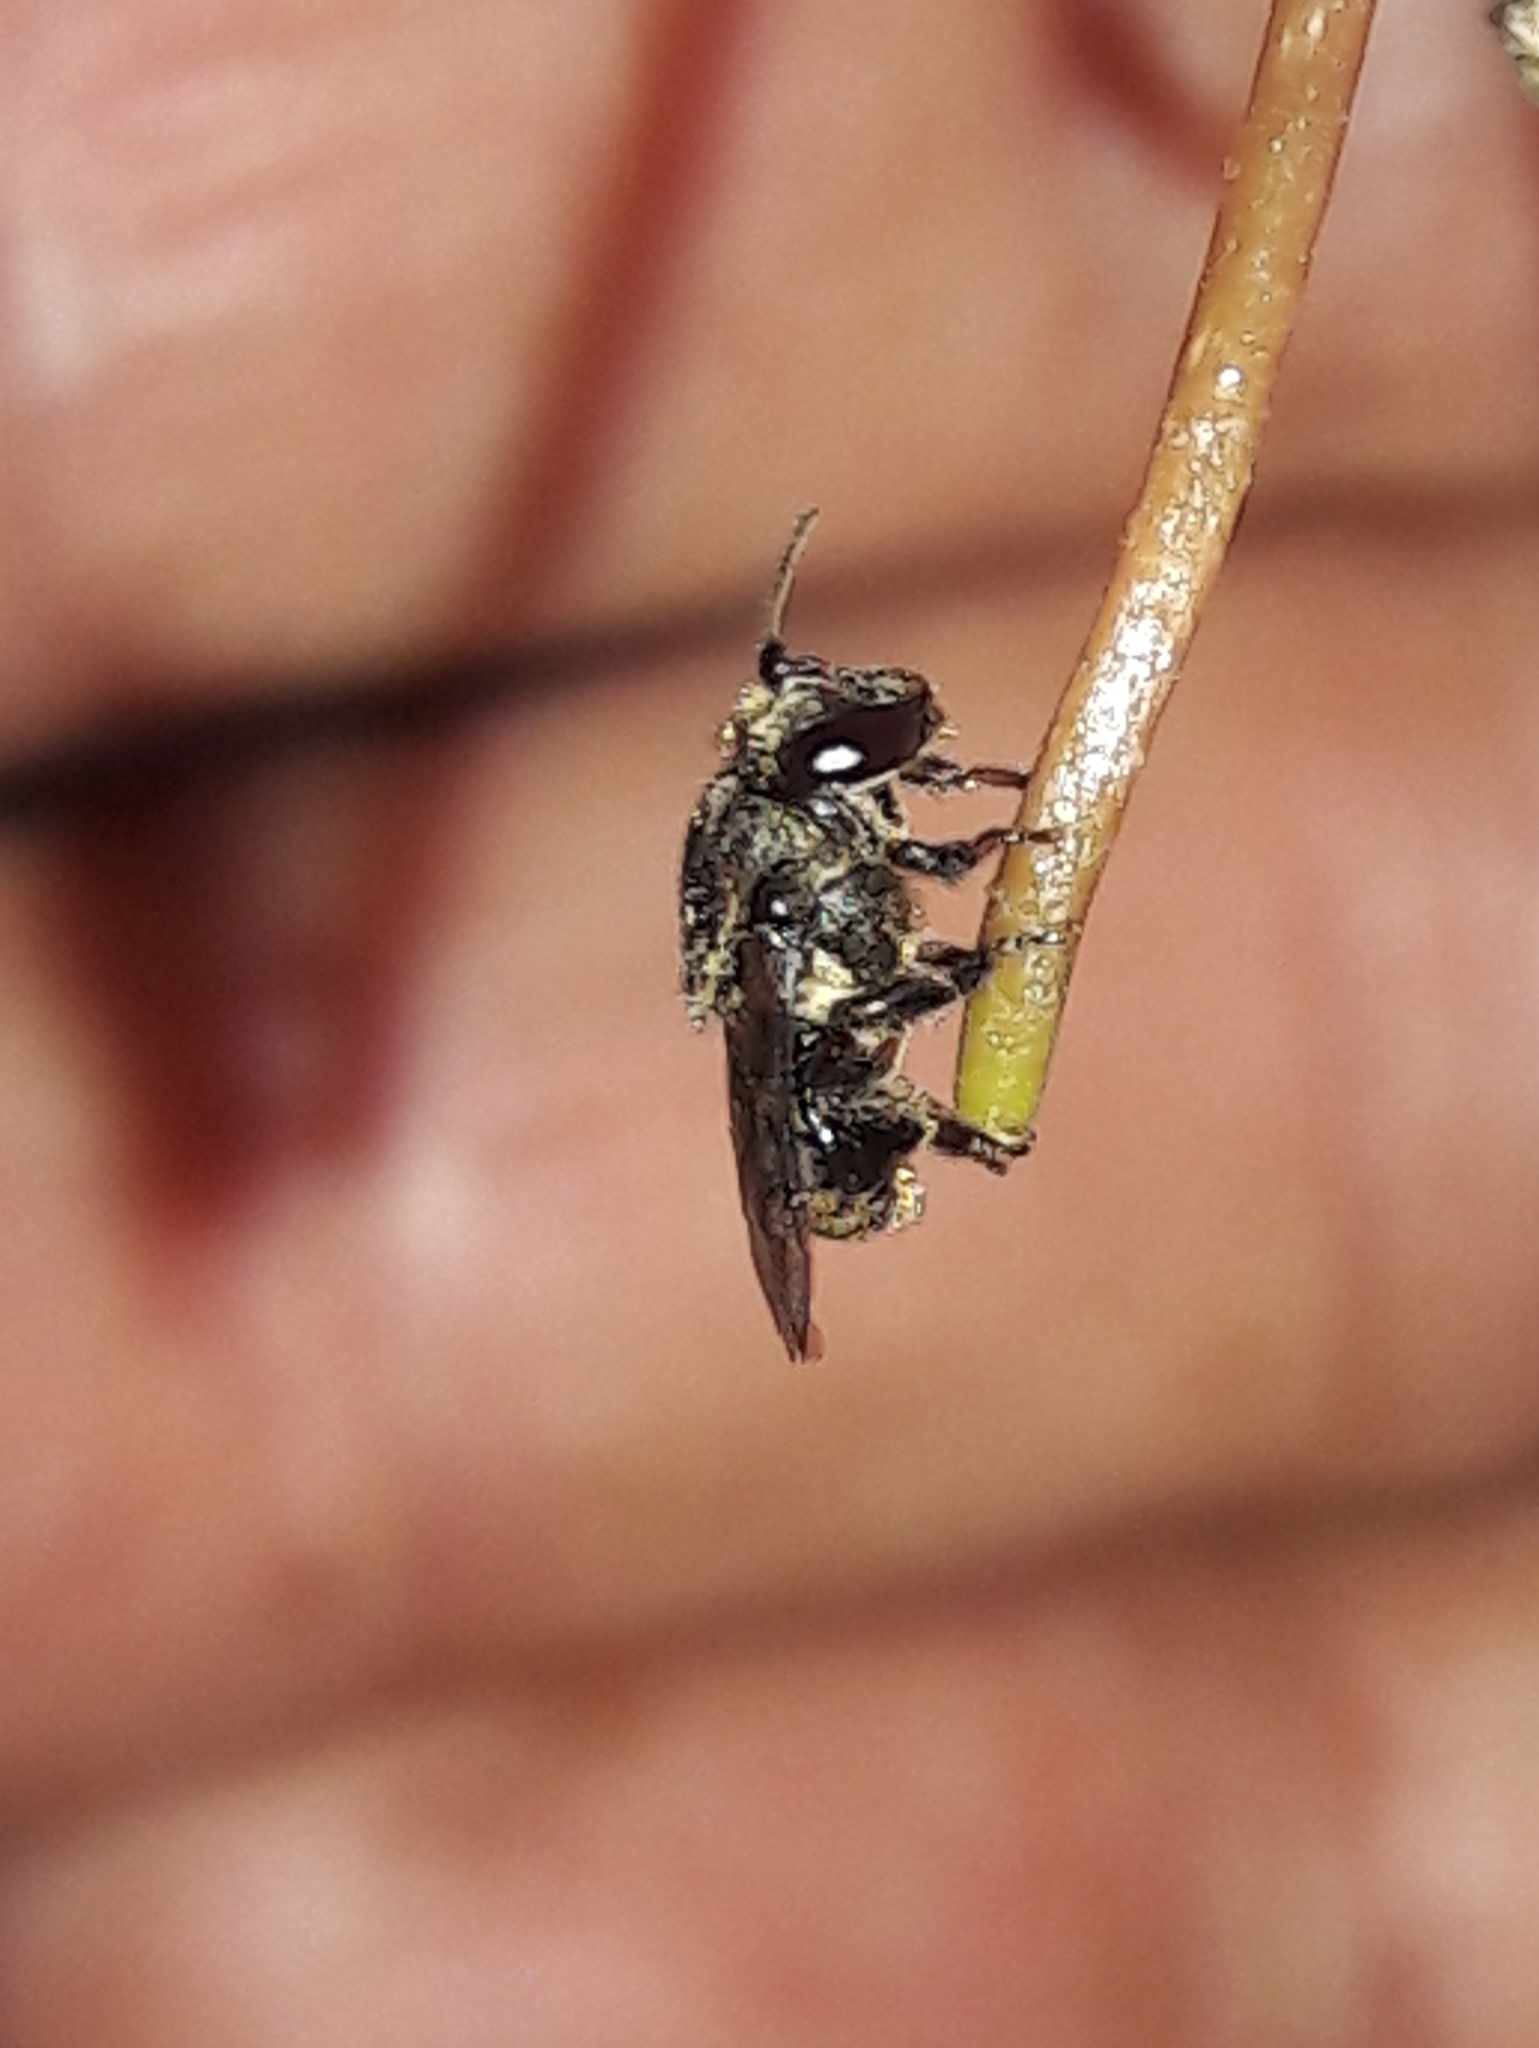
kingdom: Animalia
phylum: Arthropoda
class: Insecta
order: Hymenoptera
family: Apidae
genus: Scaptotrigona
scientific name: Scaptotrigona postica
